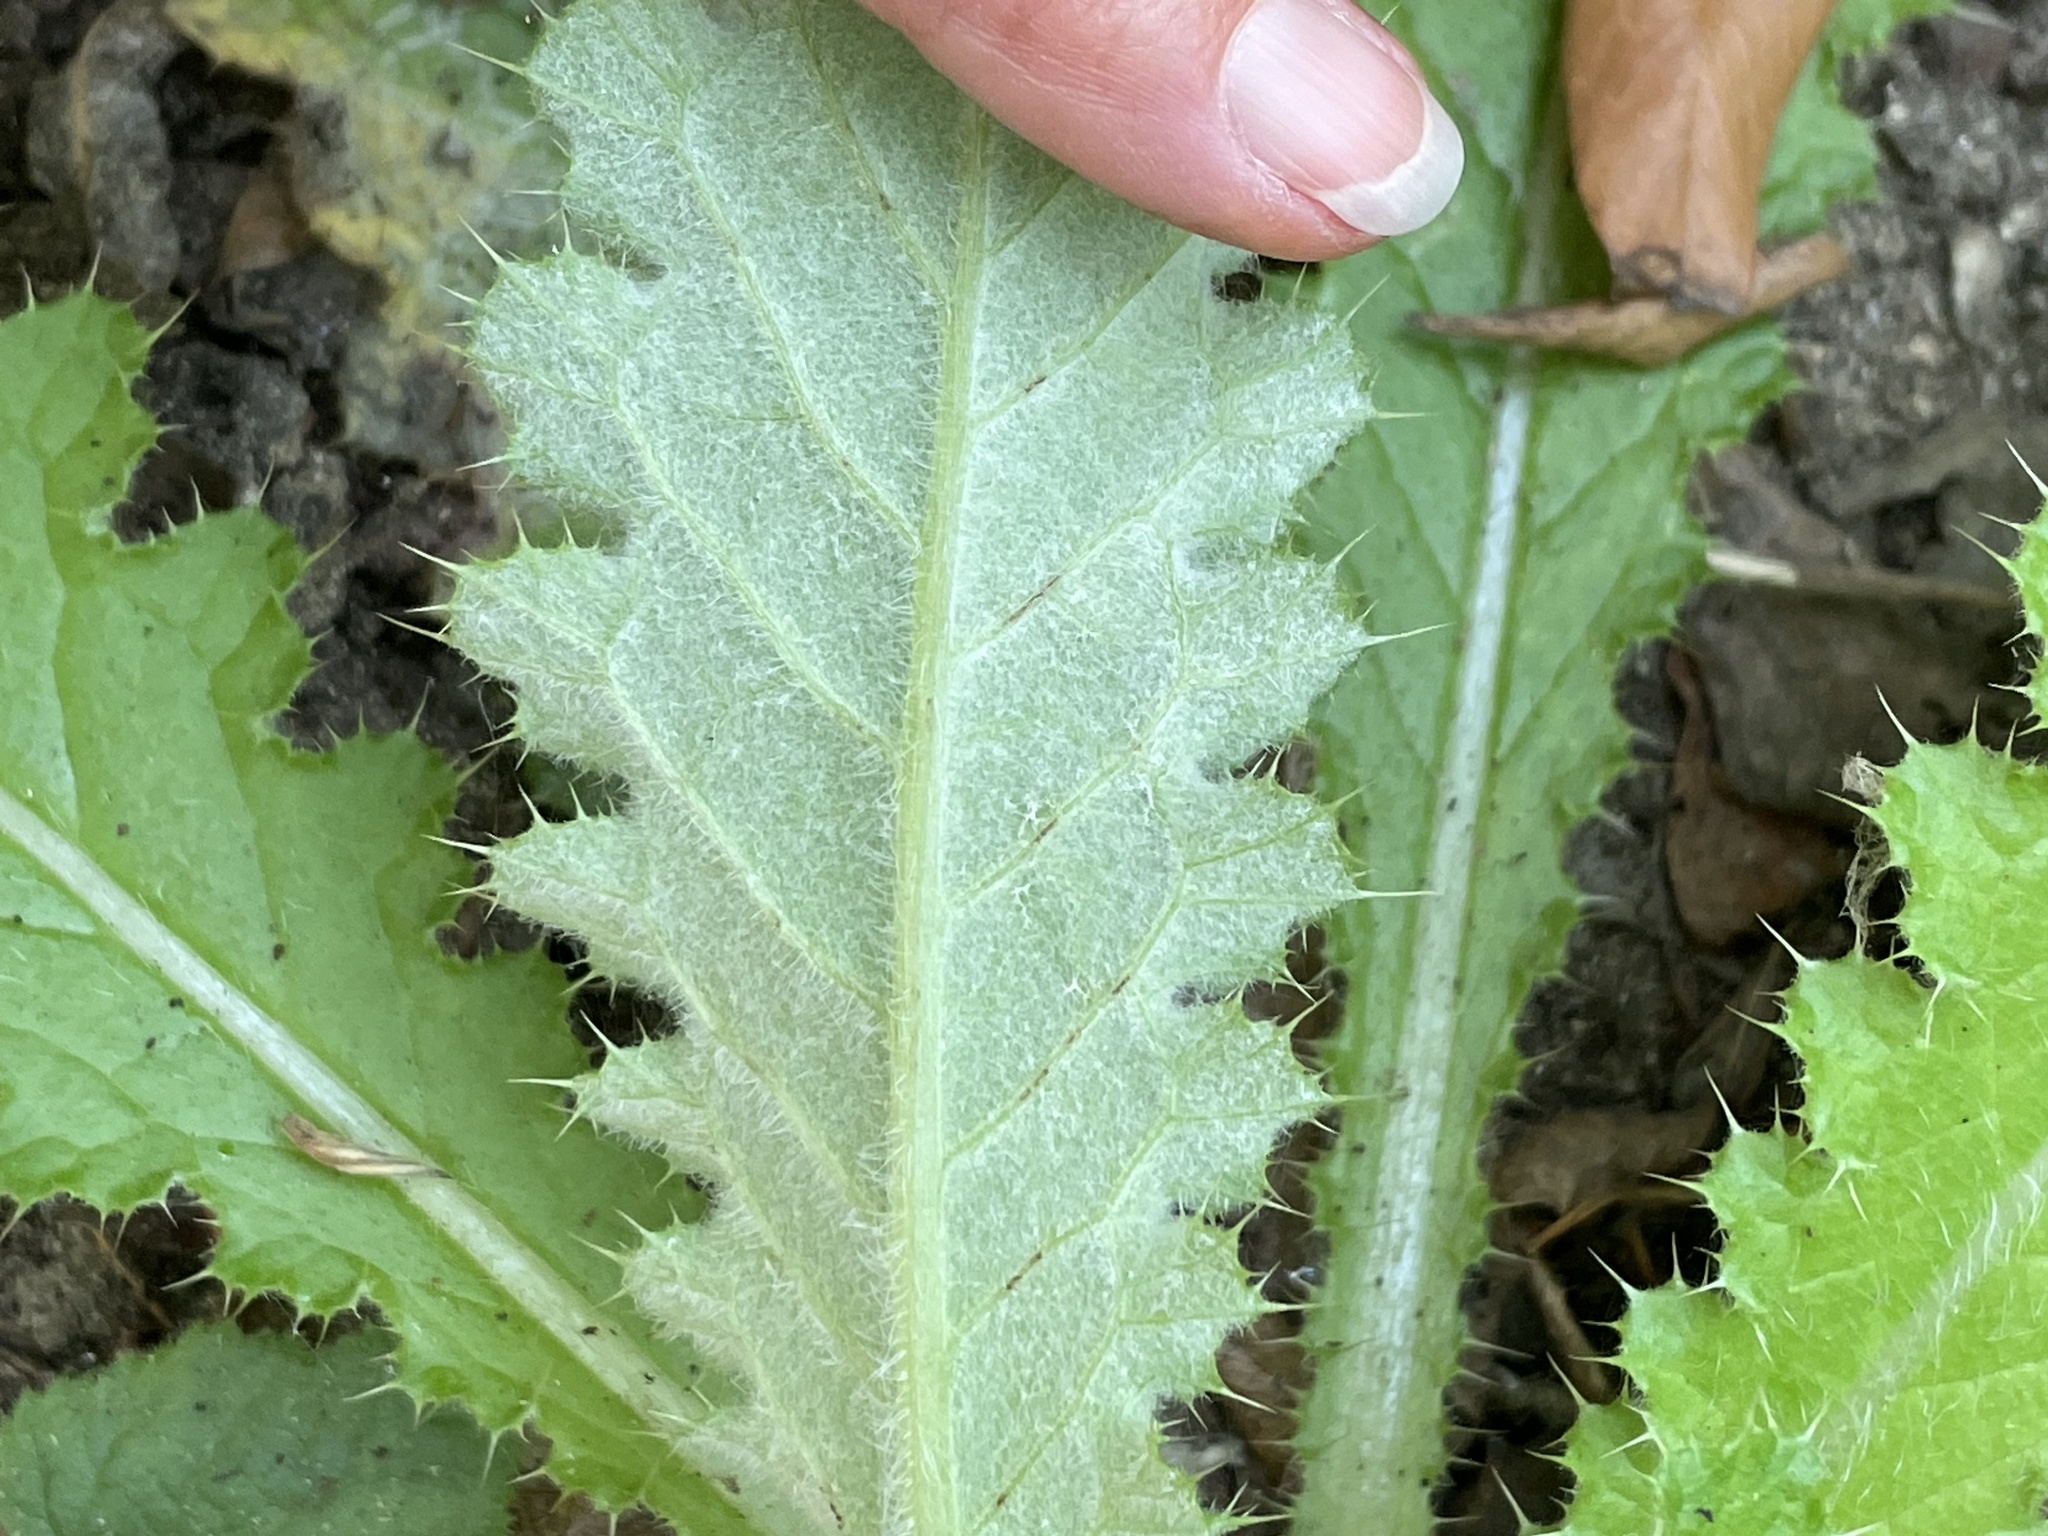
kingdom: Plantae
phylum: Tracheophyta
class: Magnoliopsida
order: Asterales
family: Asteraceae
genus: Cirsium
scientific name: Cirsium brevistylum
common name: Indian thistle
